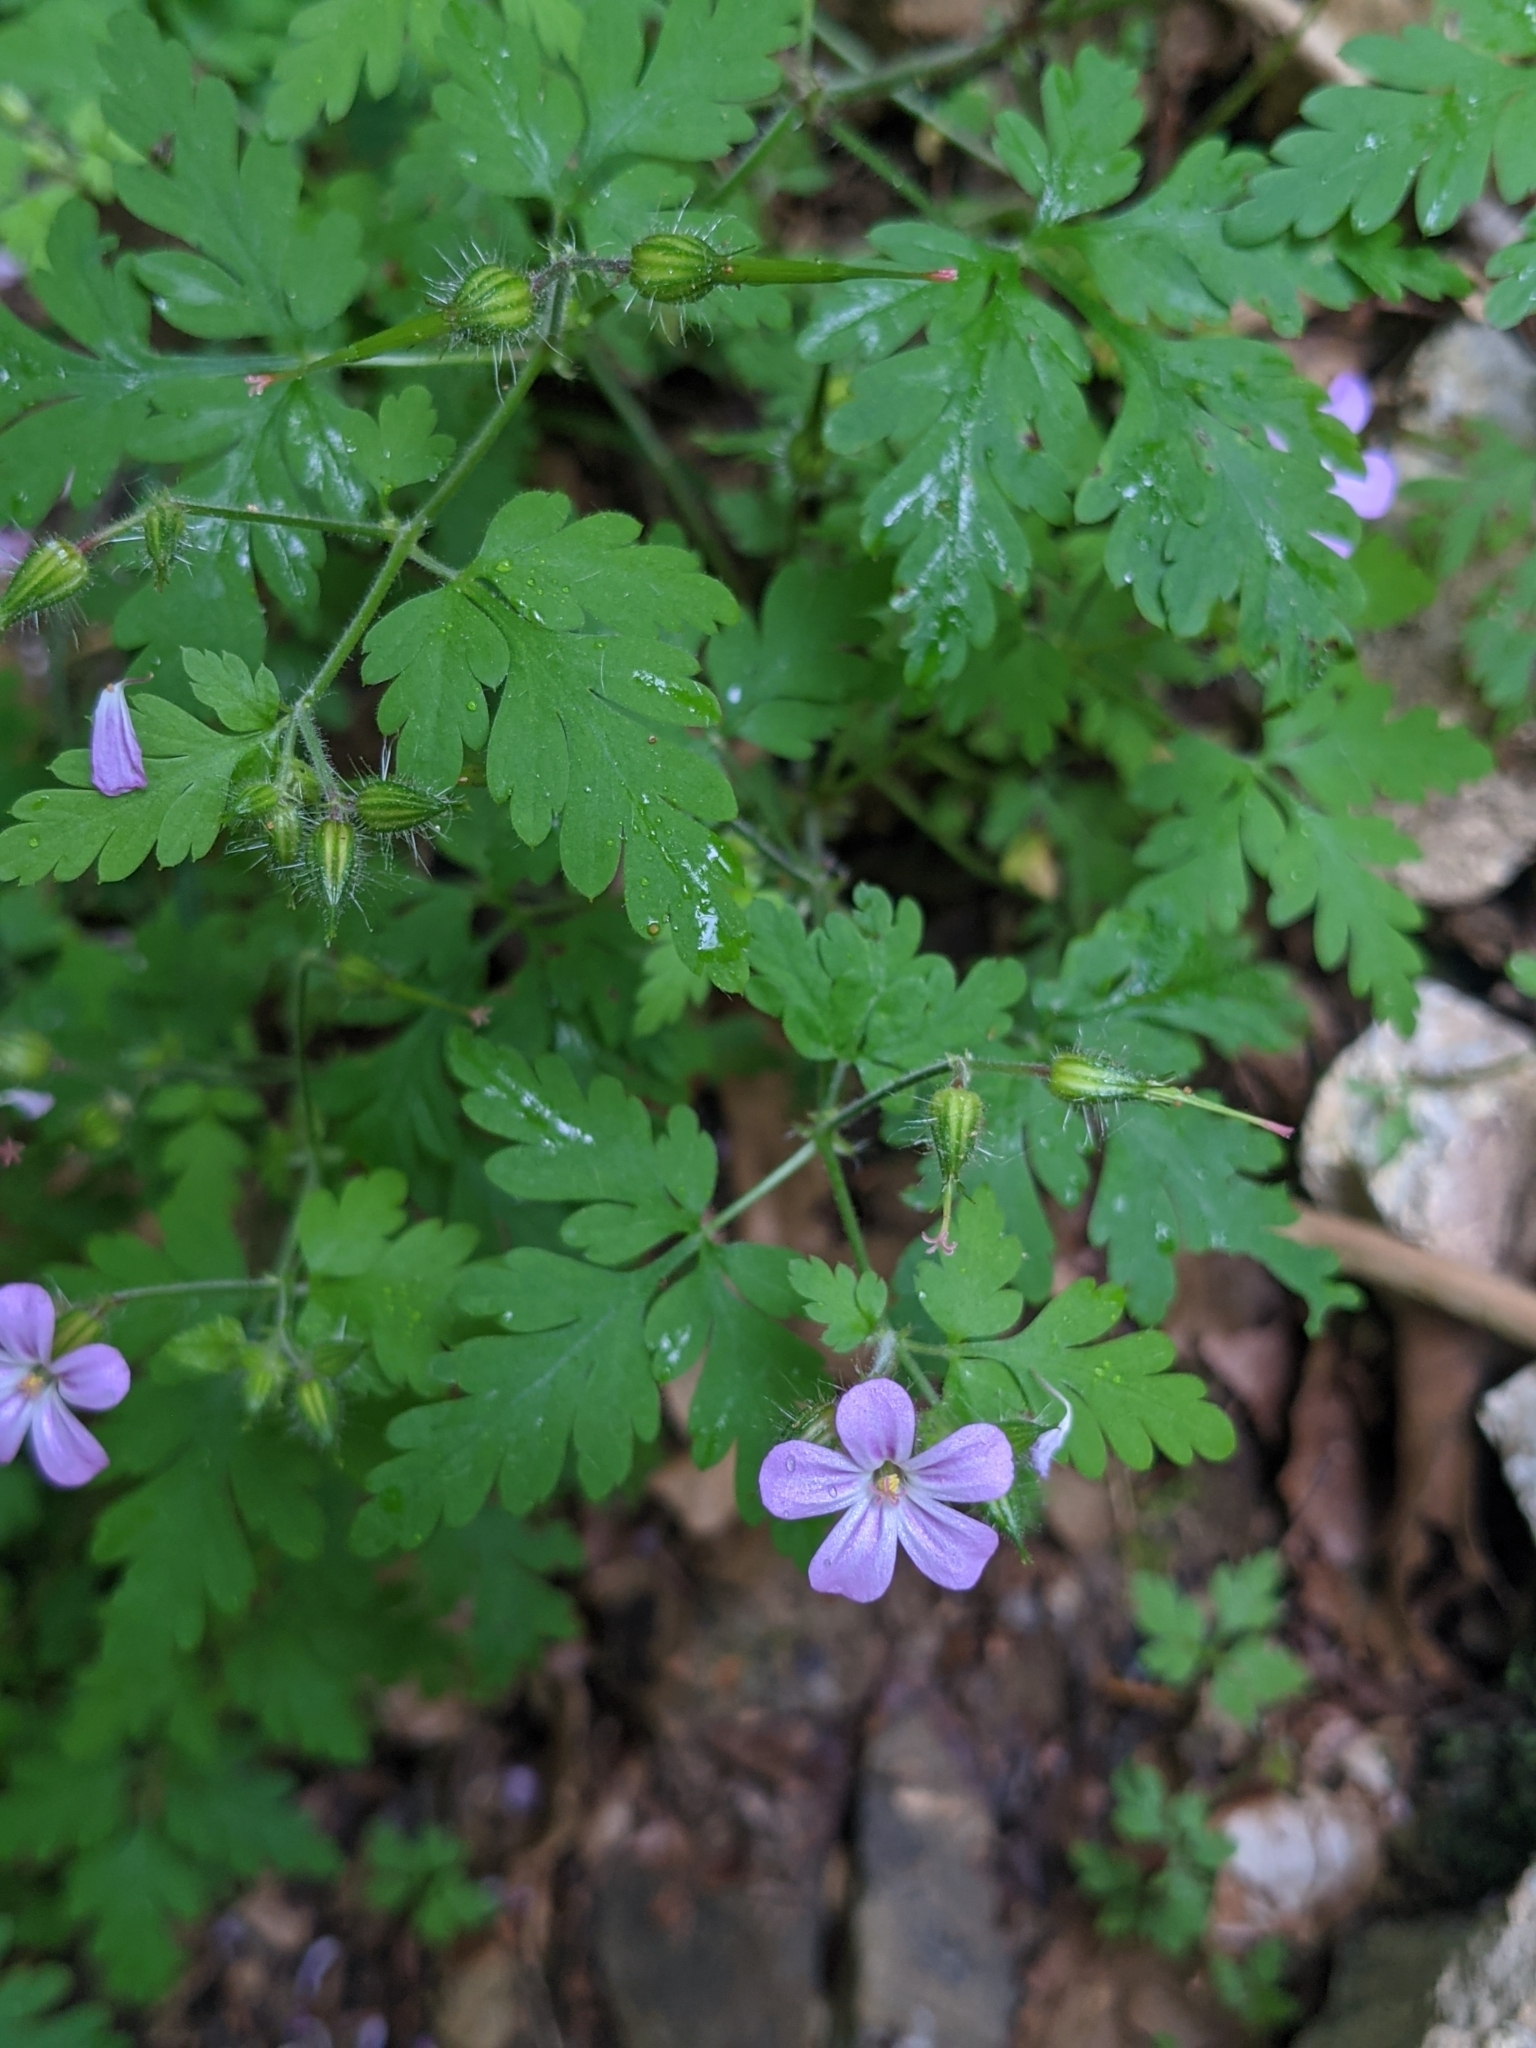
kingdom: Plantae
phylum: Tracheophyta
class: Magnoliopsida
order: Geraniales
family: Geraniaceae
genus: Geranium
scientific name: Geranium robertianum
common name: Herb-robert
